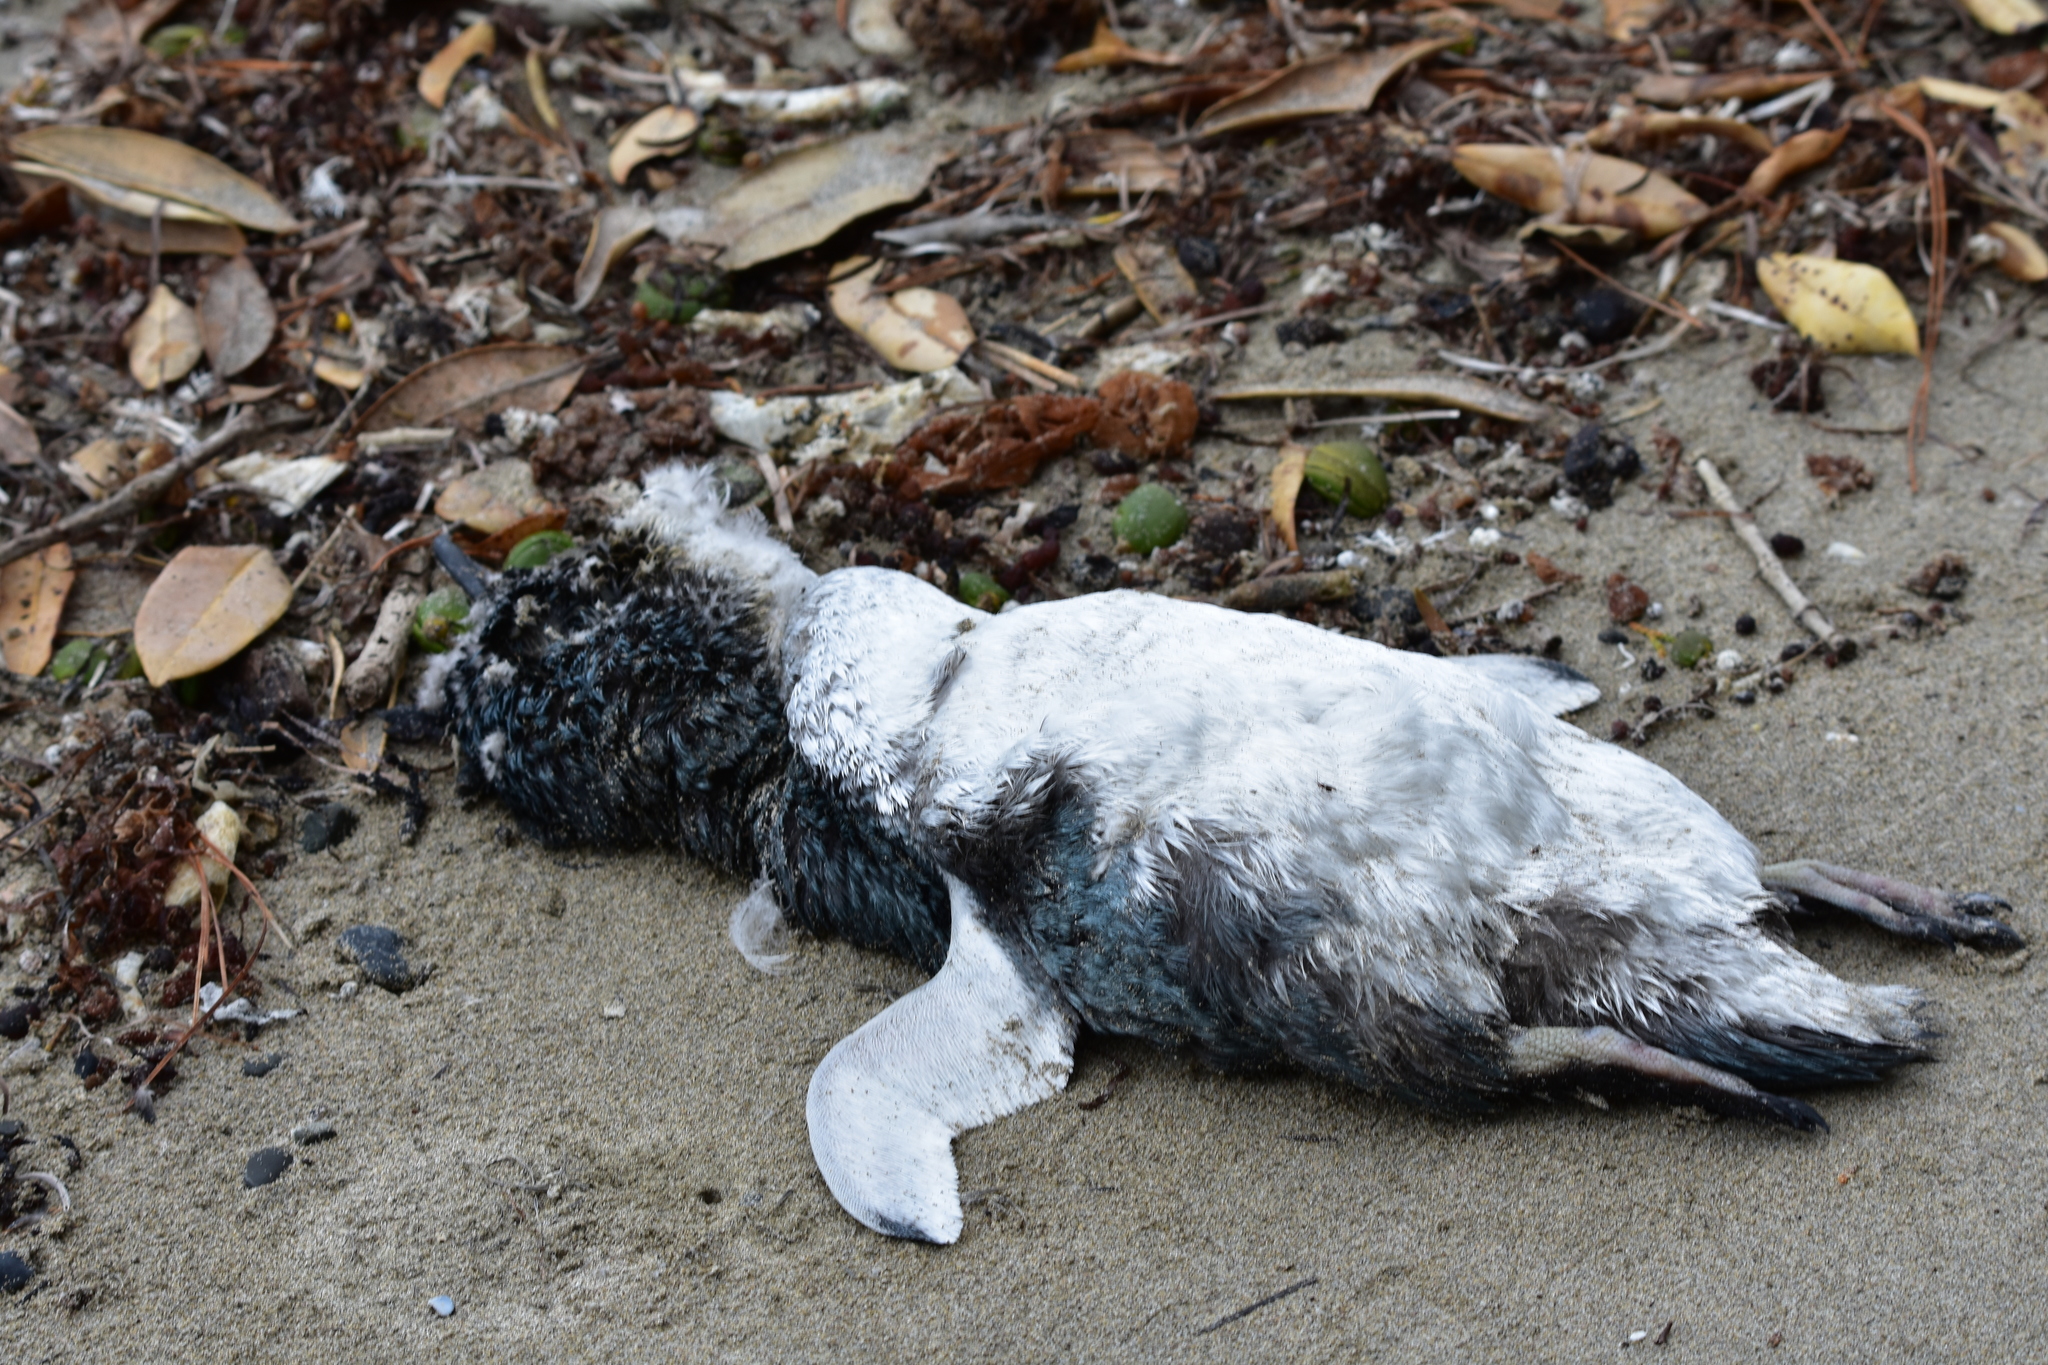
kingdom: Animalia
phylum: Chordata
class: Aves
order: Sphenisciformes
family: Spheniscidae
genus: Eudyptula
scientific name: Eudyptula minor
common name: Little penguin
